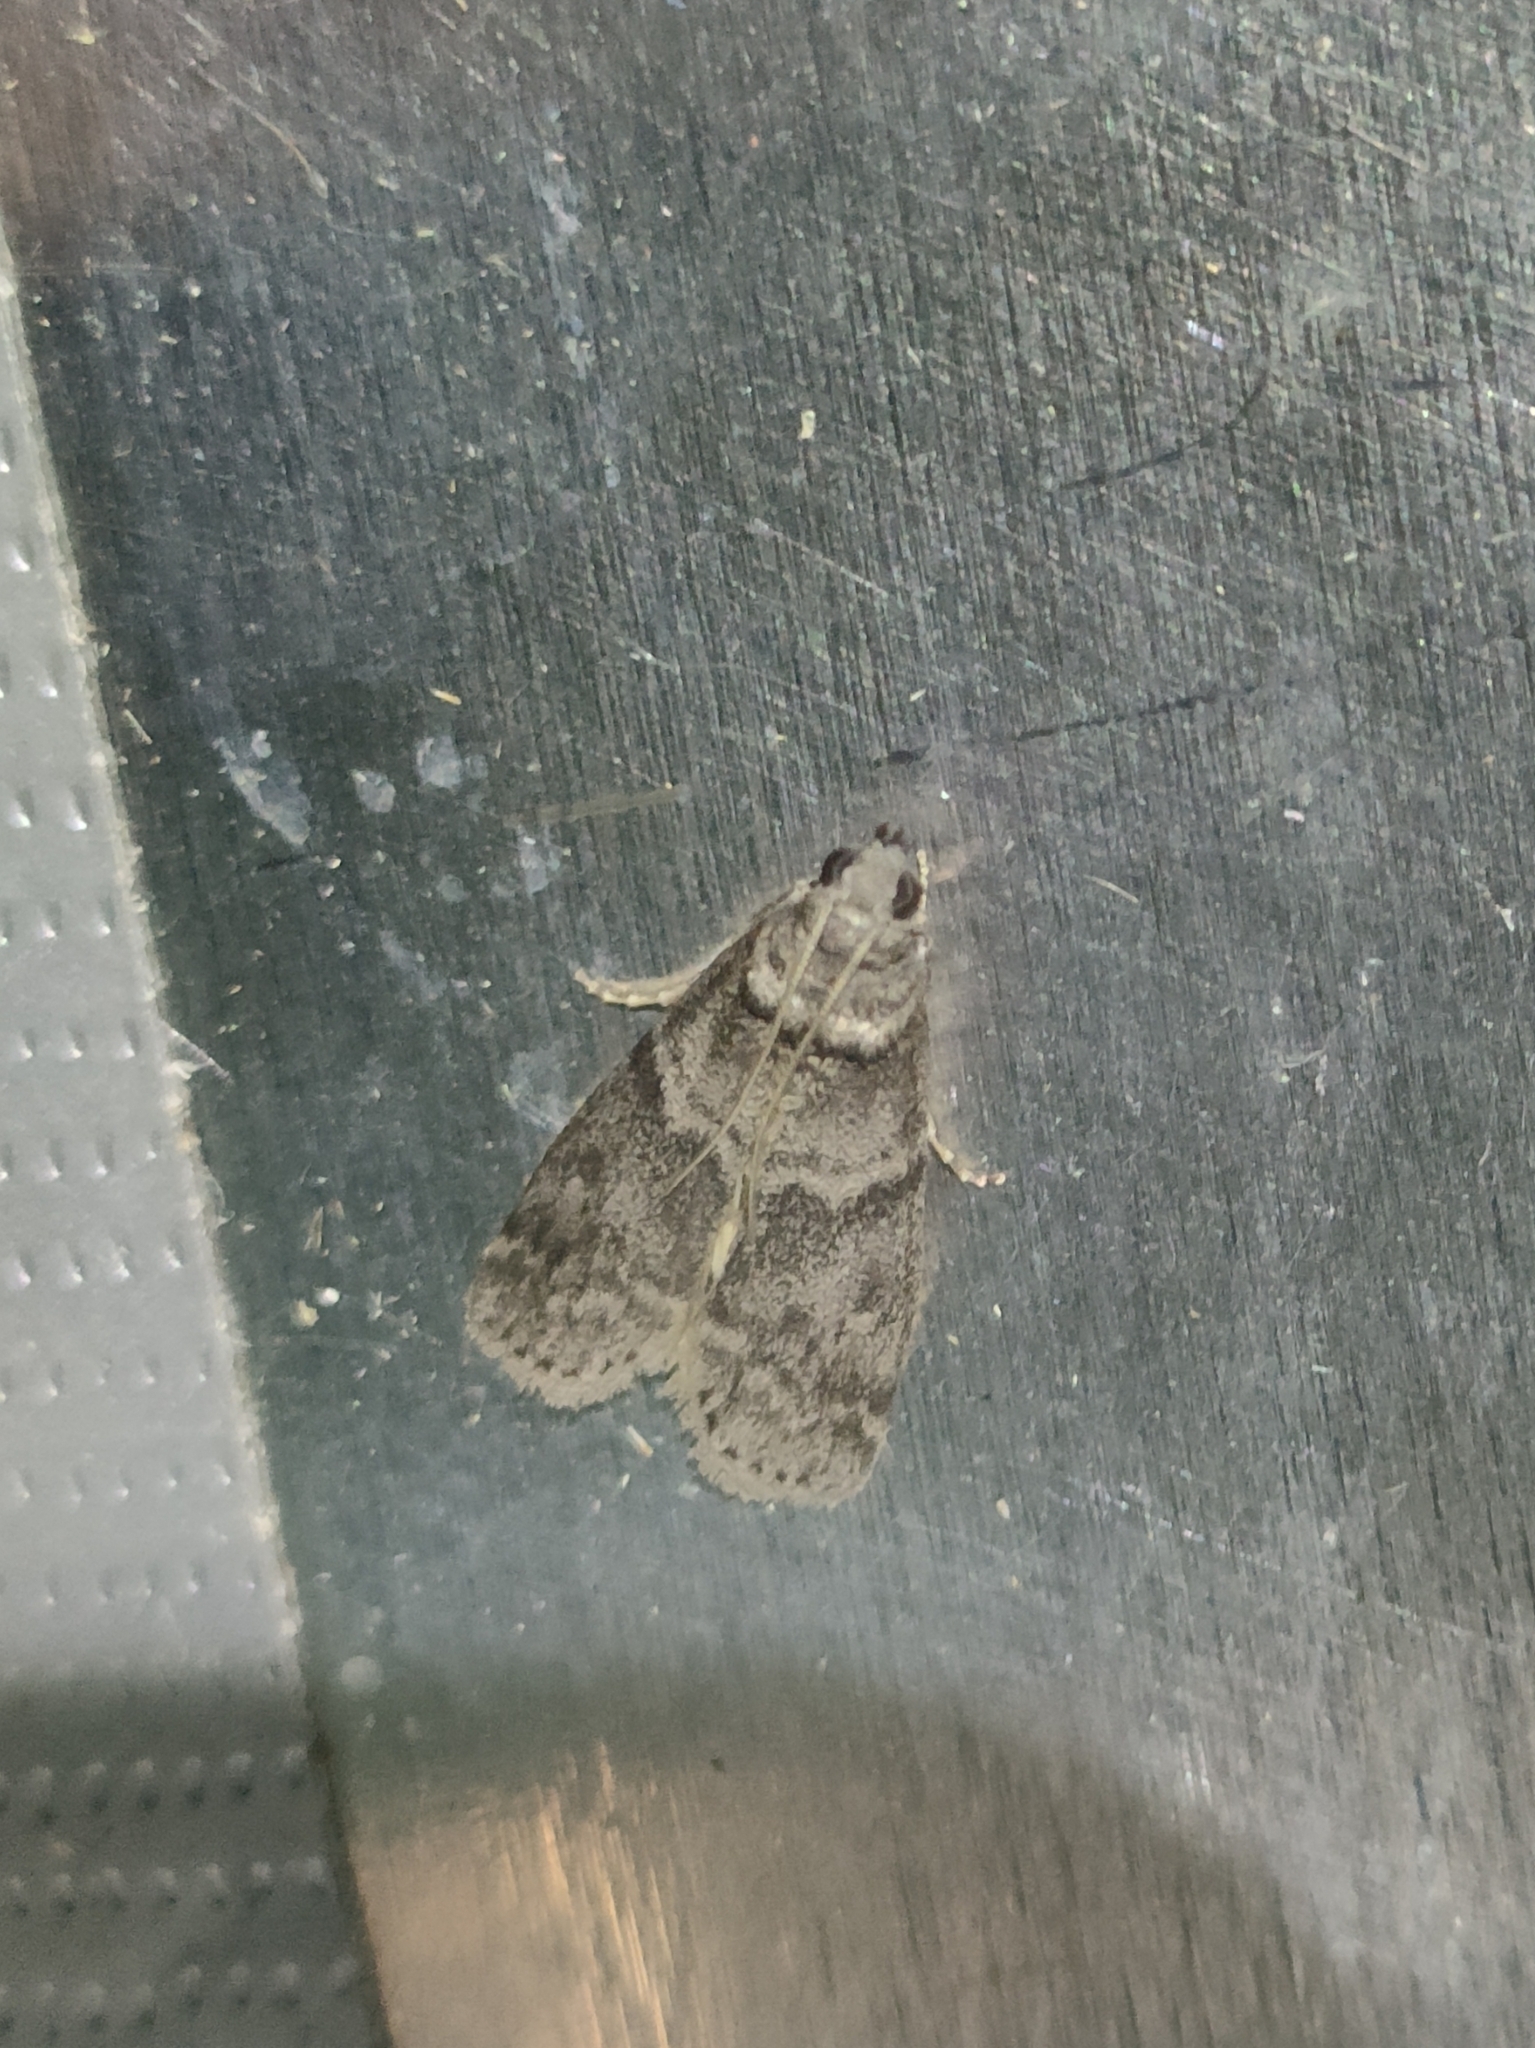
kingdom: Animalia
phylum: Arthropoda
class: Insecta
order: Lepidoptera
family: Pyralidae
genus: Ectomyelois
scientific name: Ectomyelois ceratoniae
